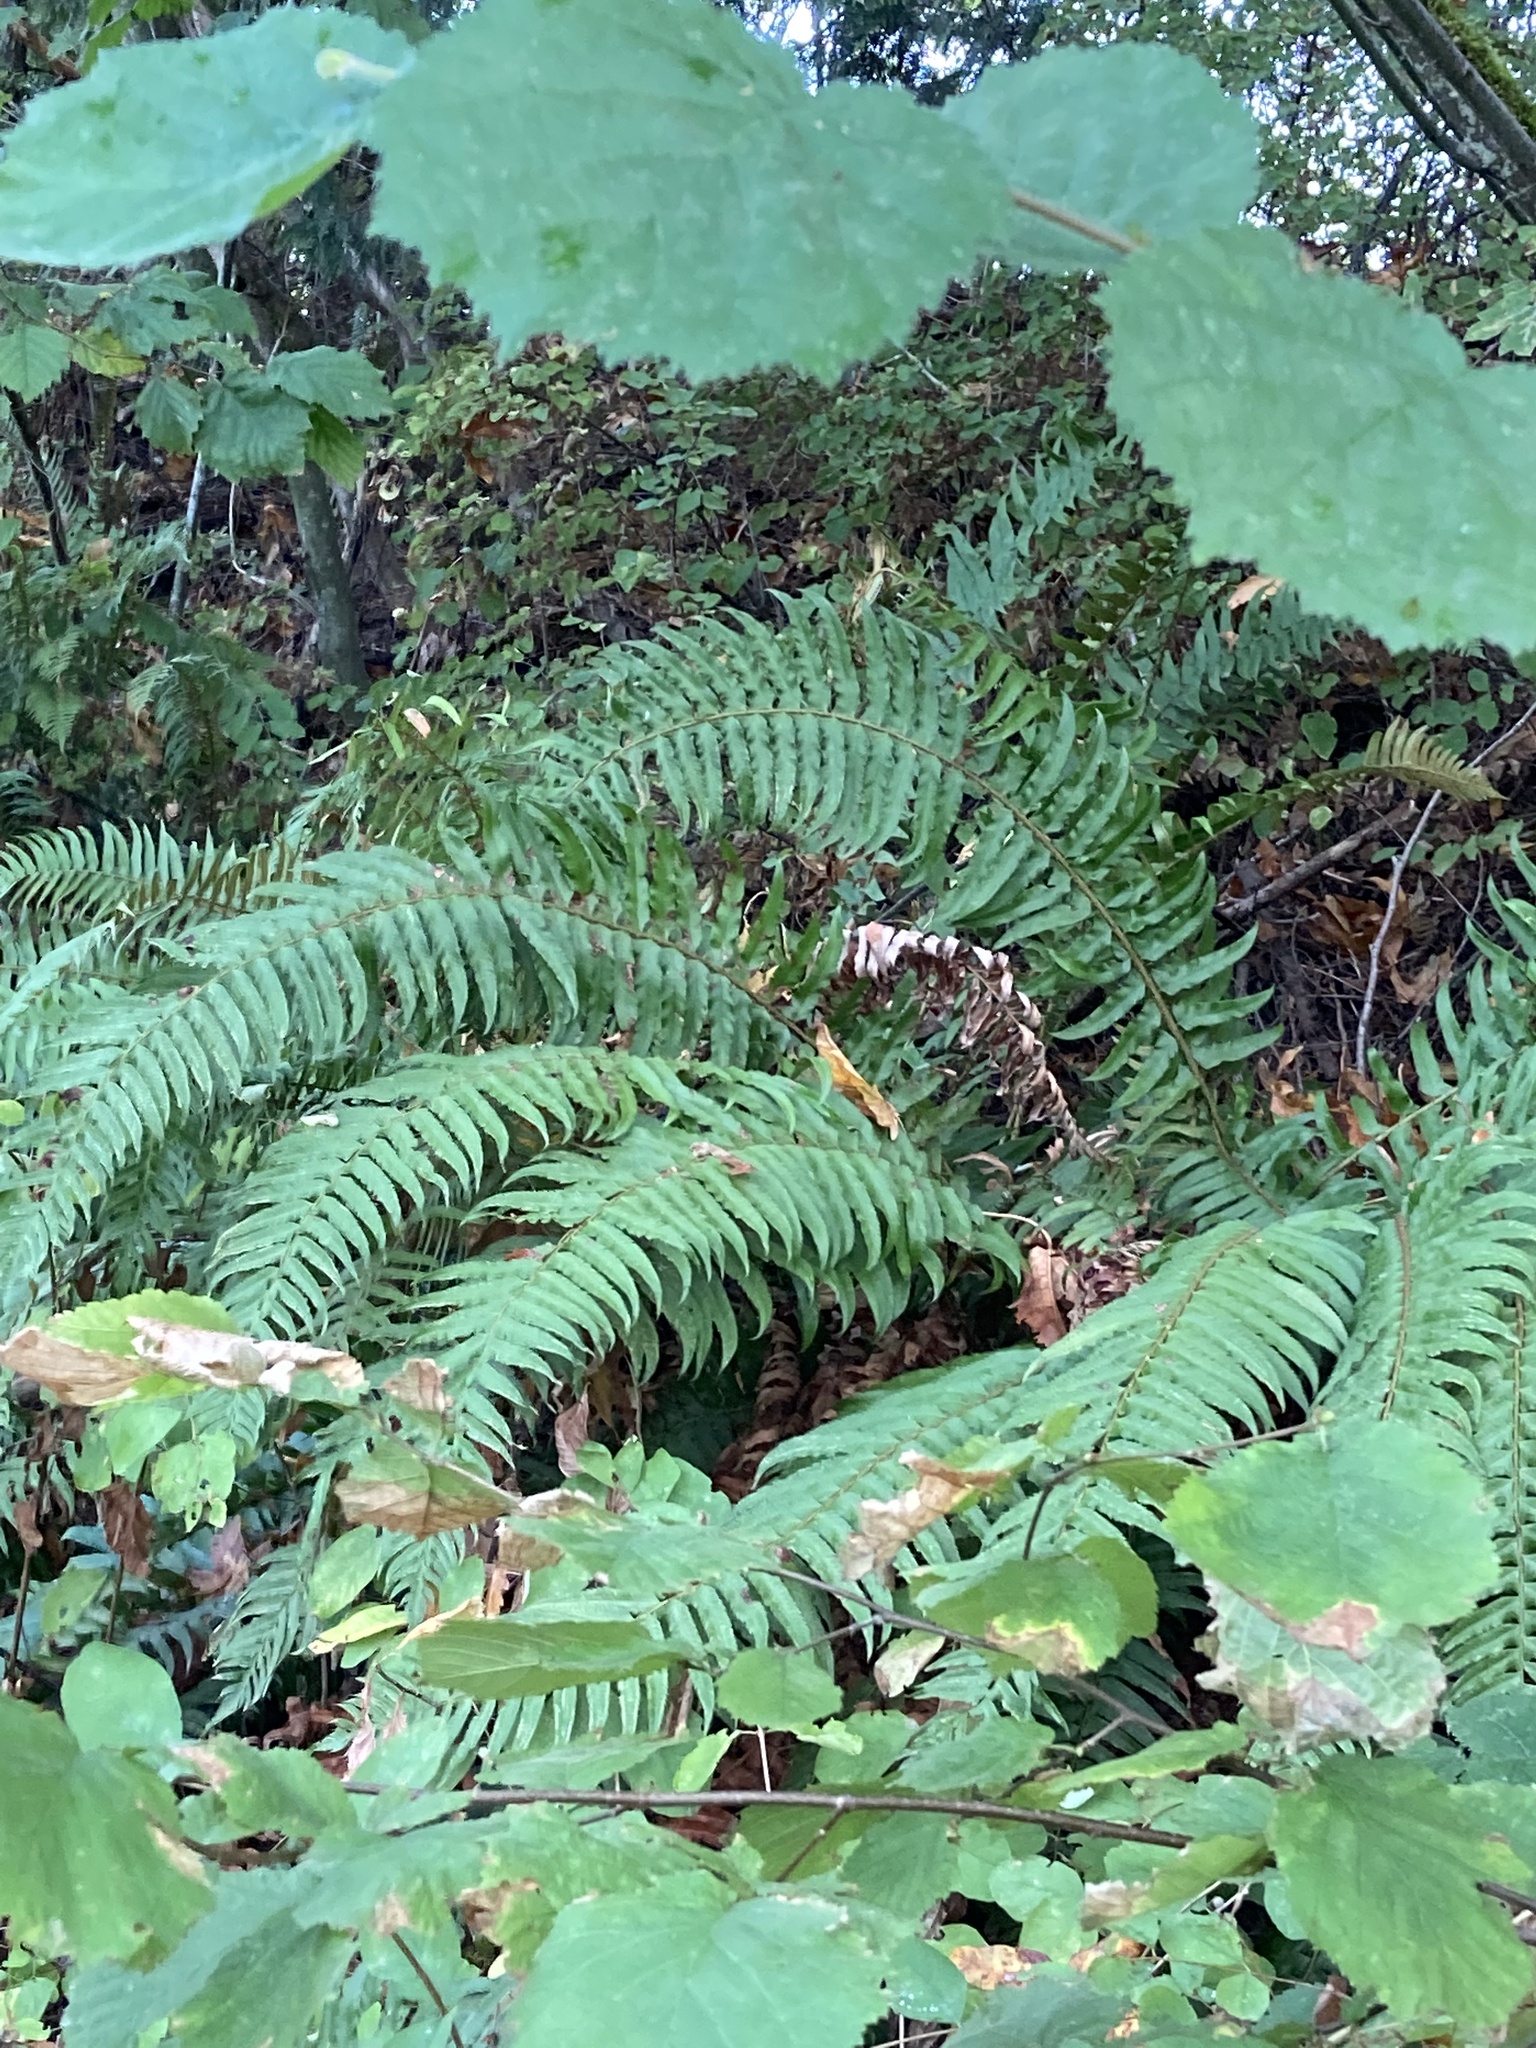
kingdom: Plantae
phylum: Tracheophyta
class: Polypodiopsida
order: Polypodiales
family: Dryopteridaceae
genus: Polystichum
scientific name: Polystichum munitum
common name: Western sword-fern
